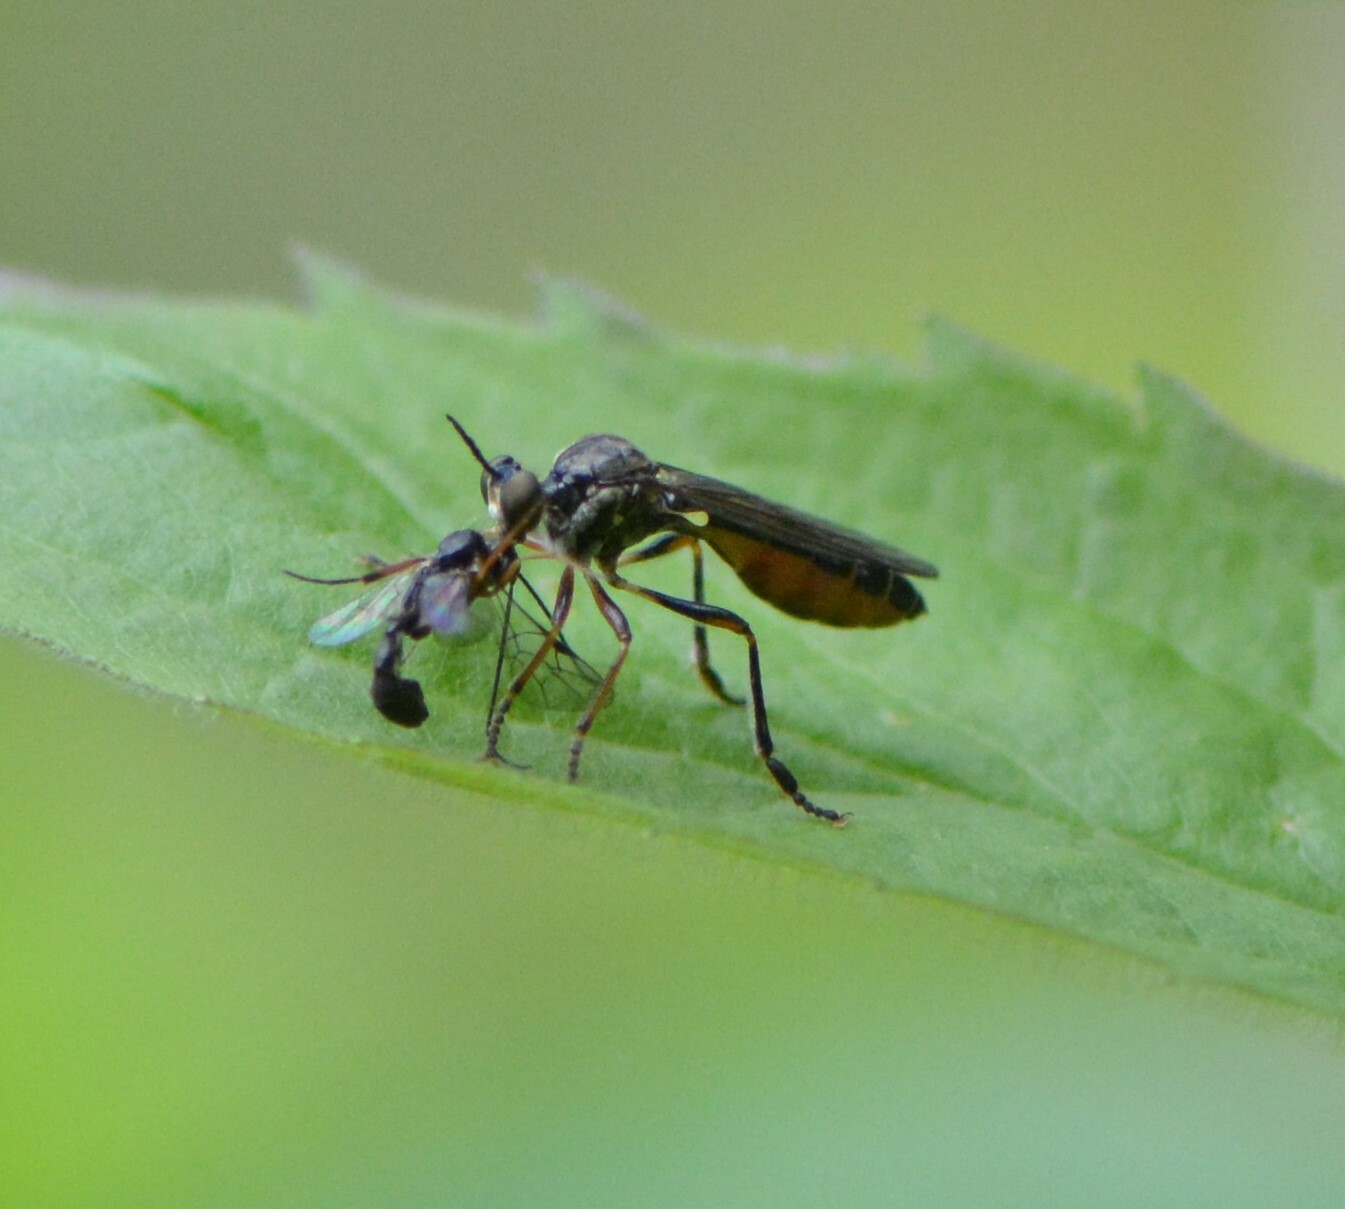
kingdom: Animalia
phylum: Arthropoda
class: Insecta
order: Diptera
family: Asilidae
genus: Dioctria
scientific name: Dioctria hyalipennis
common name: Stripe-legged robberfly
